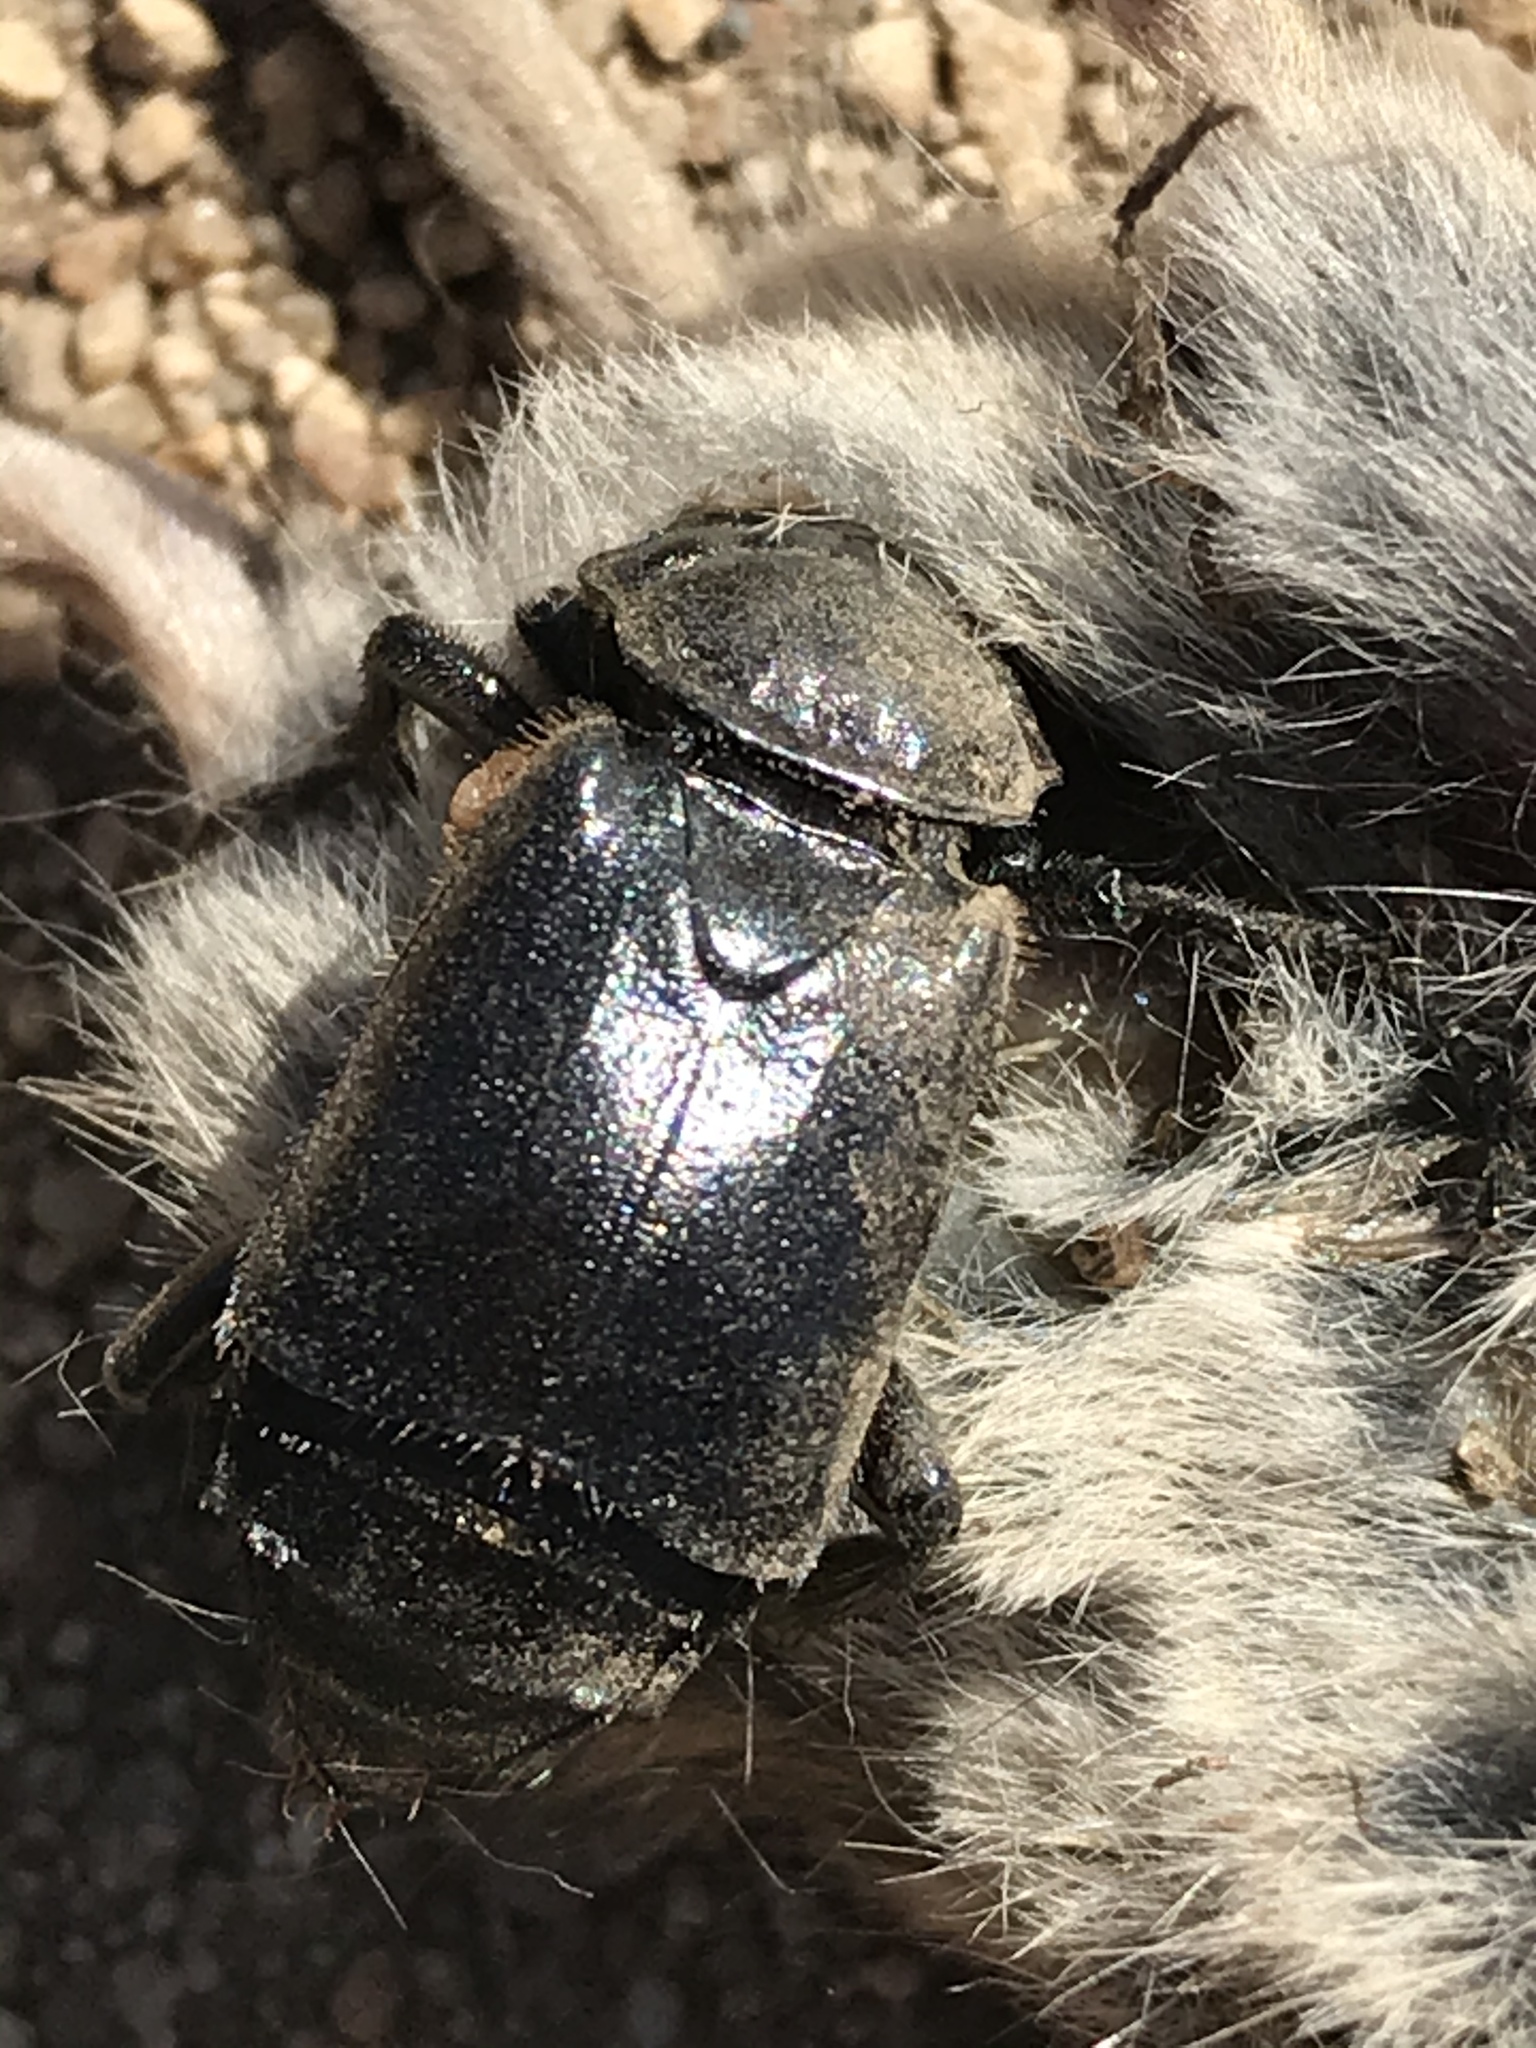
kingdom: Animalia
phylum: Arthropoda
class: Insecta
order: Coleoptera
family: Staphylinidae
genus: Nicrophorus
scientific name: Nicrophorus guttula
